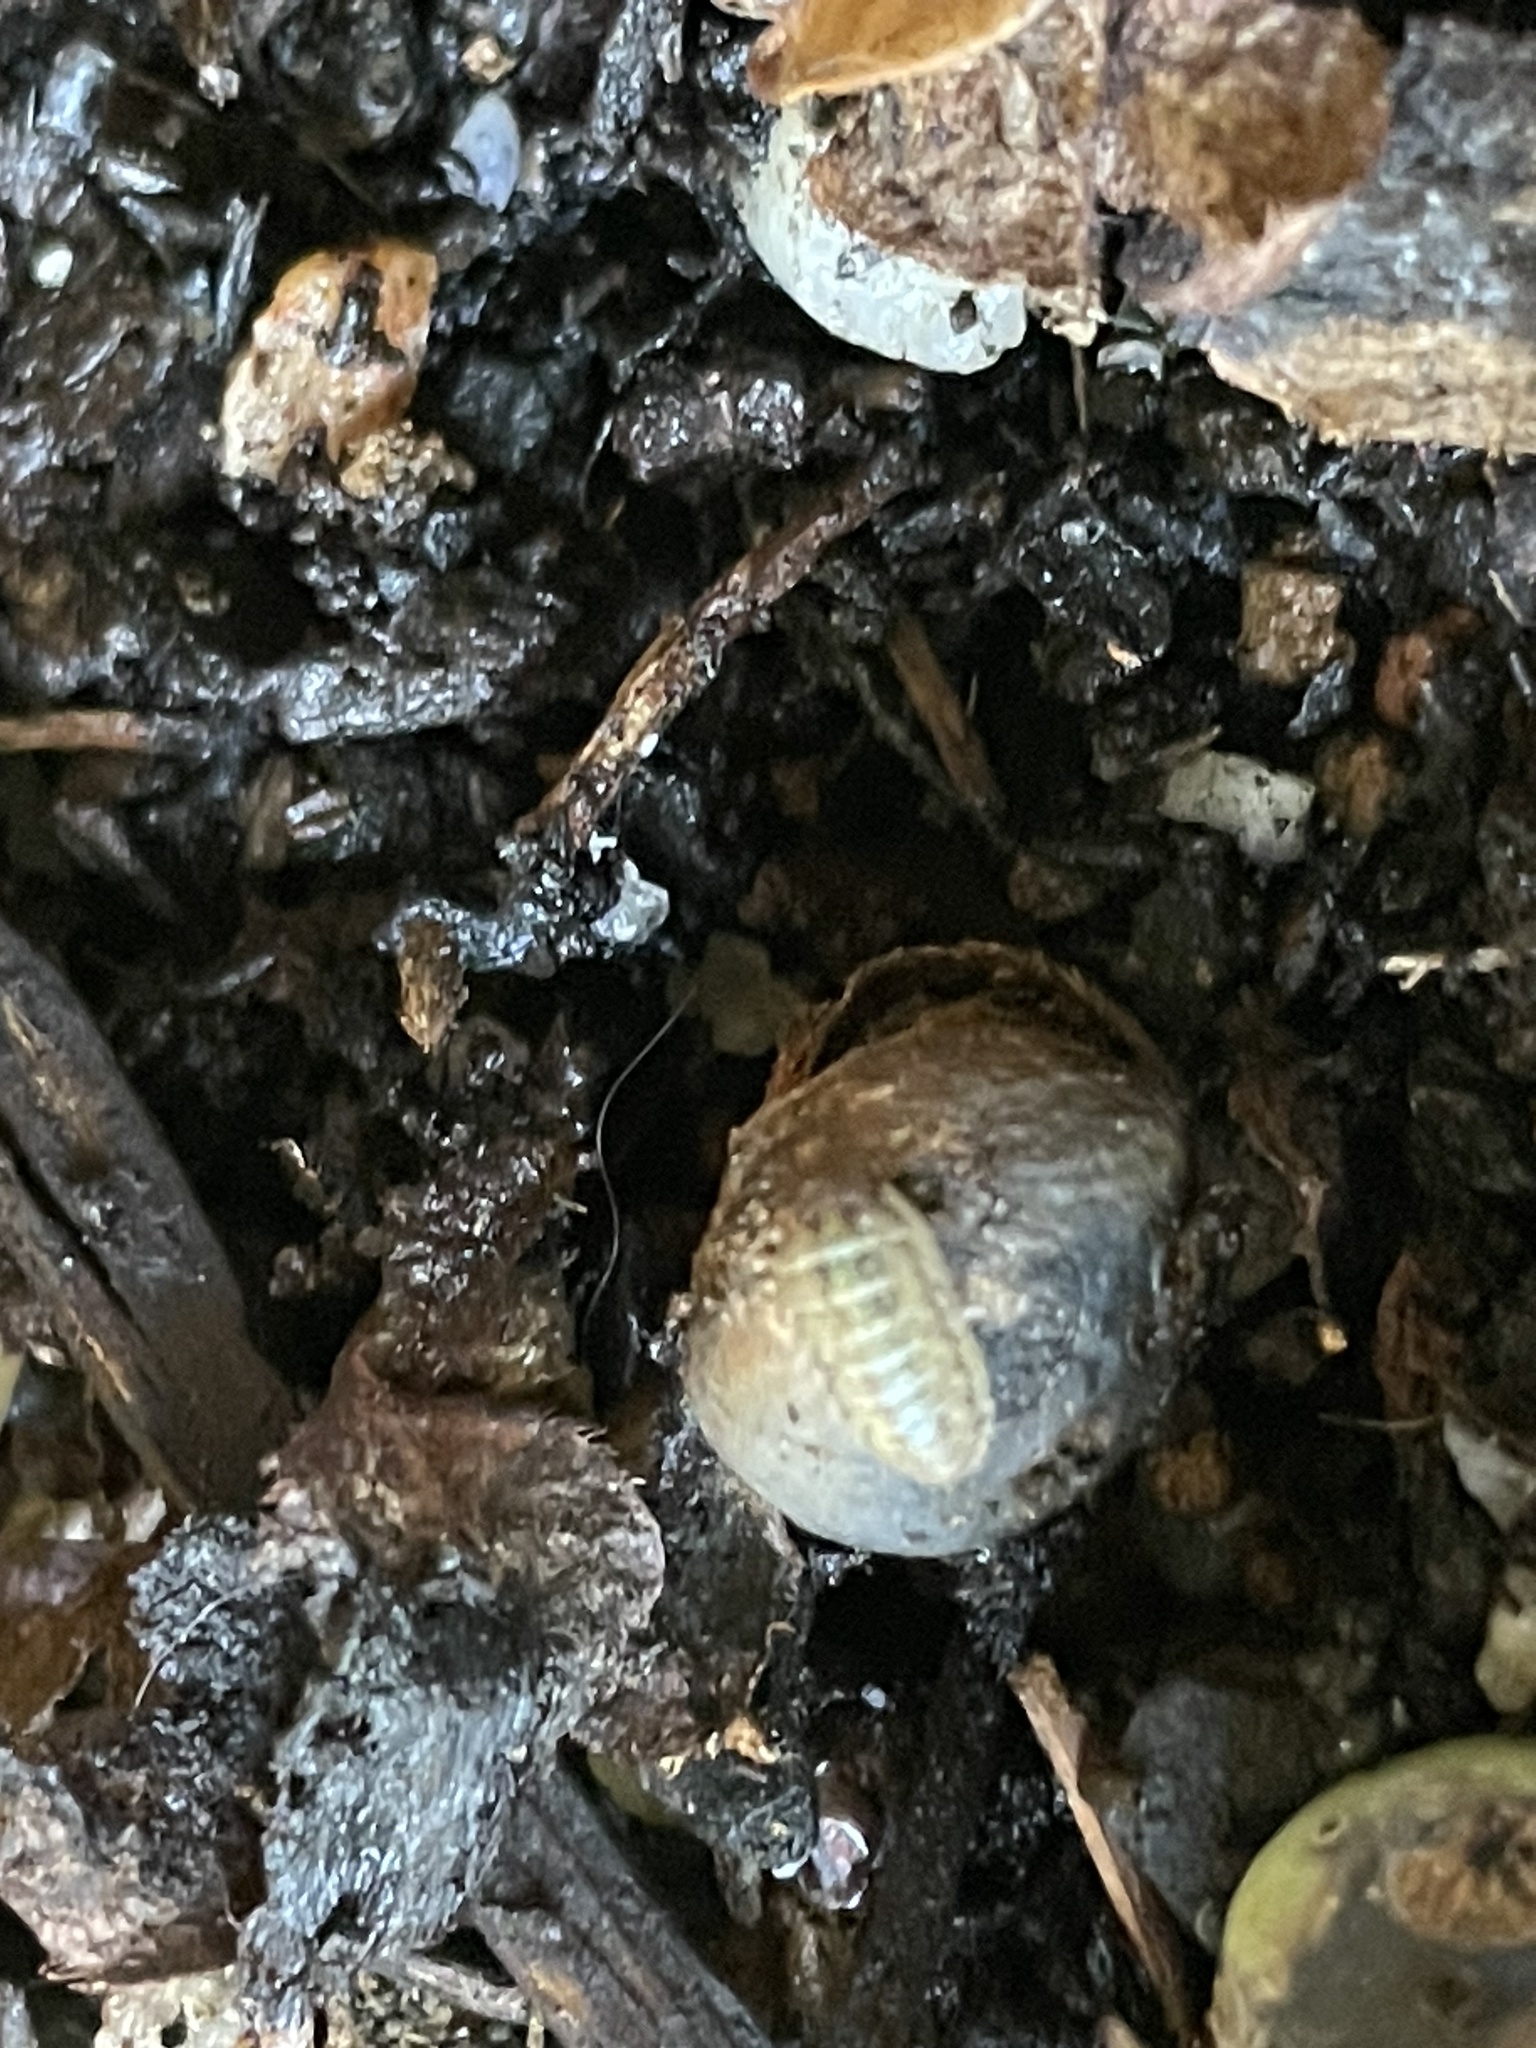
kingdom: Animalia
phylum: Arthropoda
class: Malacostraca
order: Isopoda
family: Armadillidiidae
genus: Armadillidium
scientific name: Armadillidium vulgare
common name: Common pill woodlouse
